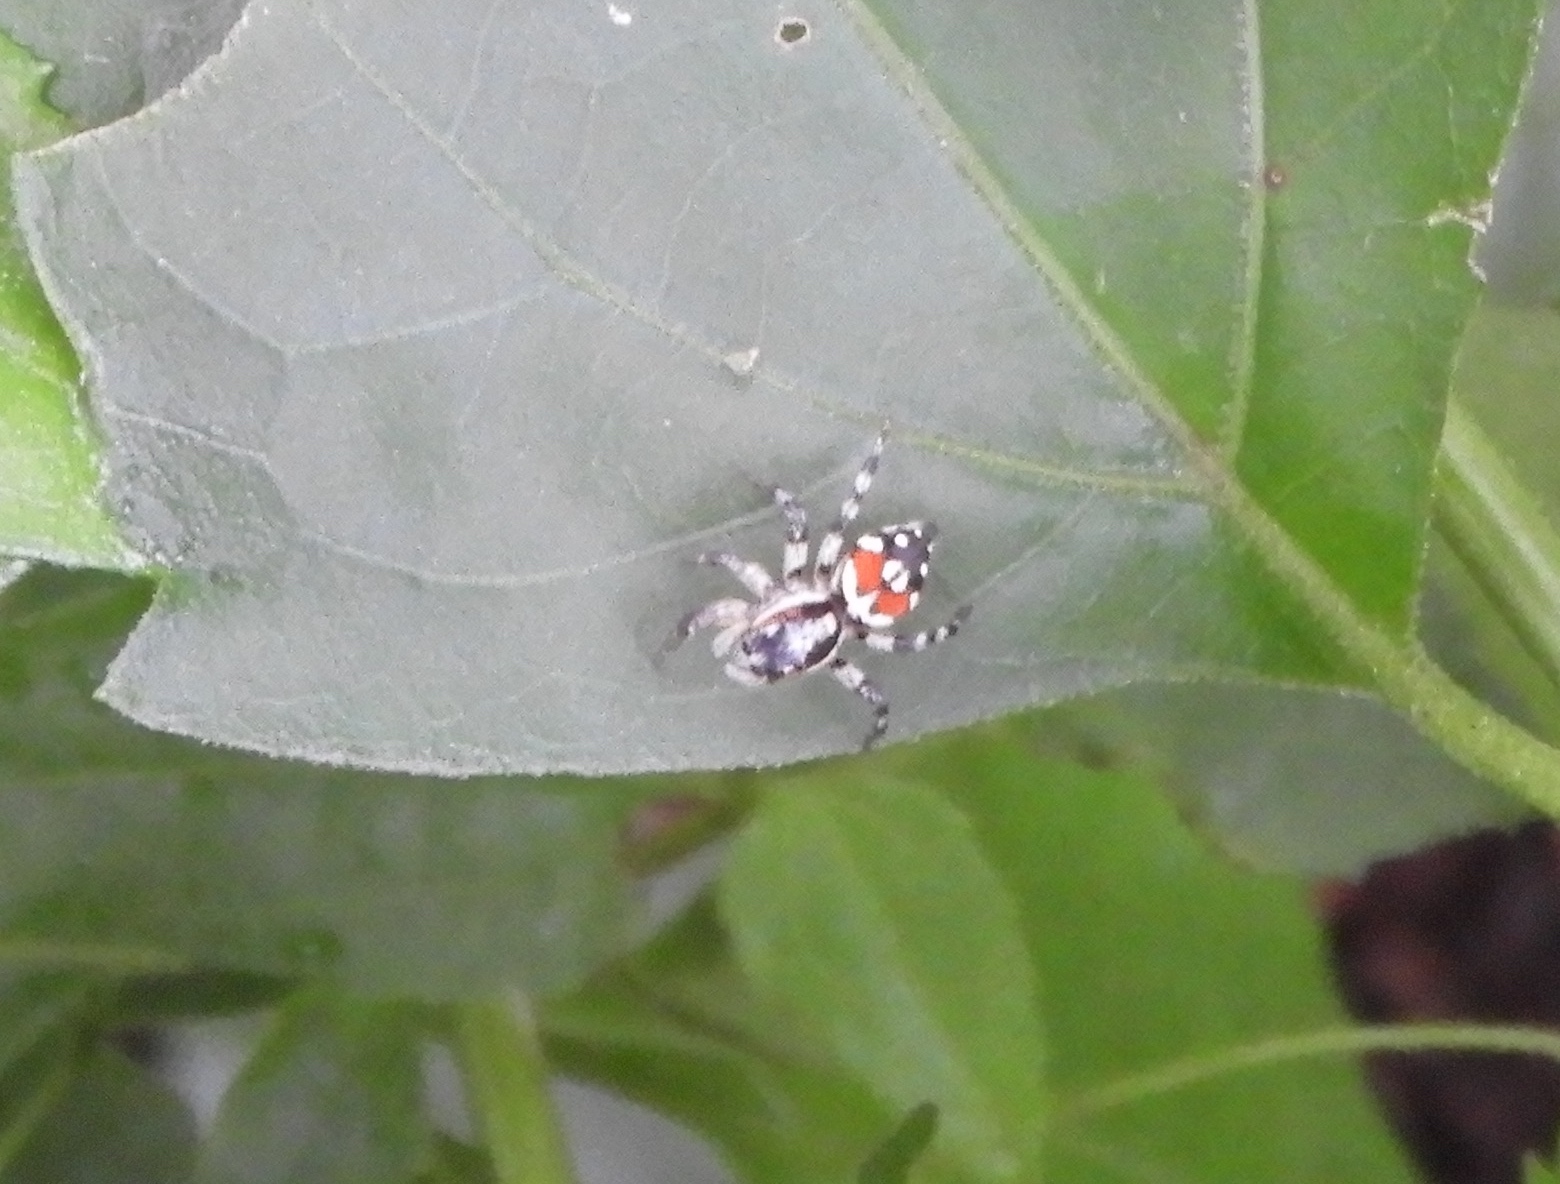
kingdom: Animalia
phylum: Arthropoda
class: Arachnida
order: Araneae
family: Salticidae
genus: Nycerella
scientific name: Nycerella delecta
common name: Jumping spiders
